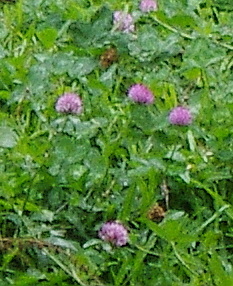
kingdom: Plantae
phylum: Tracheophyta
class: Magnoliopsida
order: Fabales
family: Fabaceae
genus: Trifolium
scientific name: Trifolium pratense
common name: Red clover
